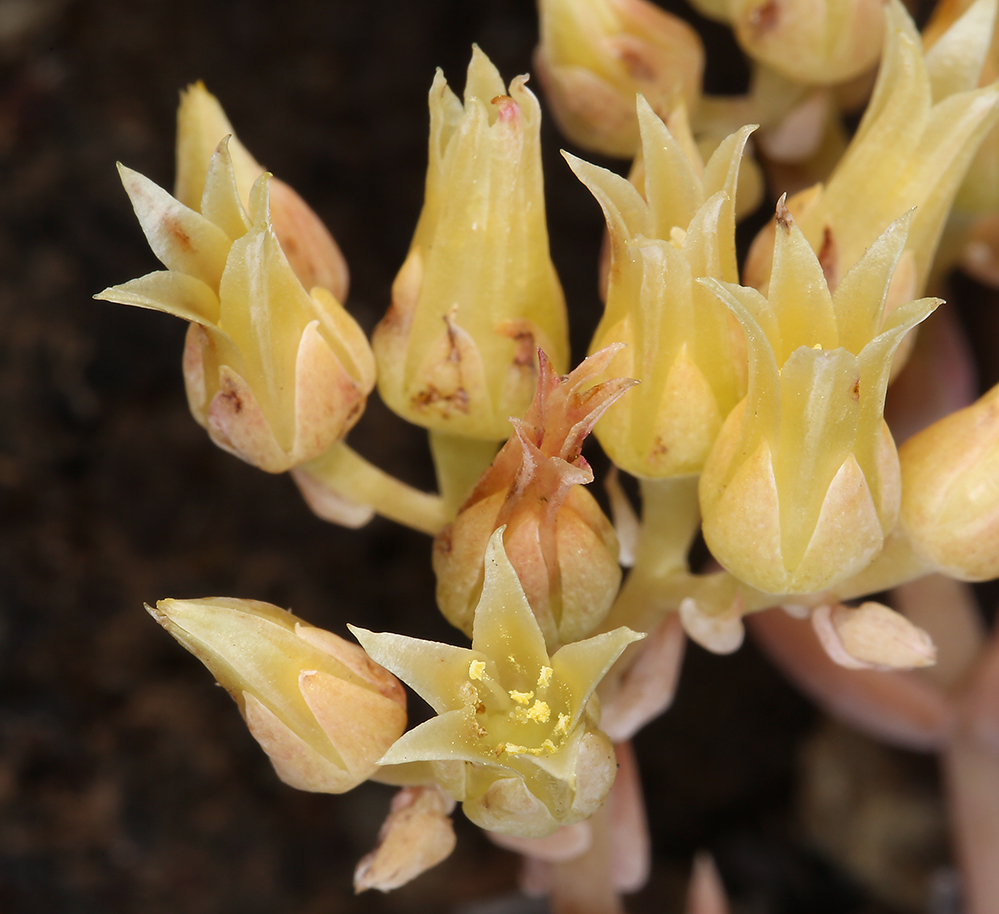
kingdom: Plantae
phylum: Tracheophyta
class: Magnoliopsida
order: Saxifragales
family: Crassulaceae
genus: Dudleya
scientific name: Dudleya cymosa
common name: Canyon dudleya
